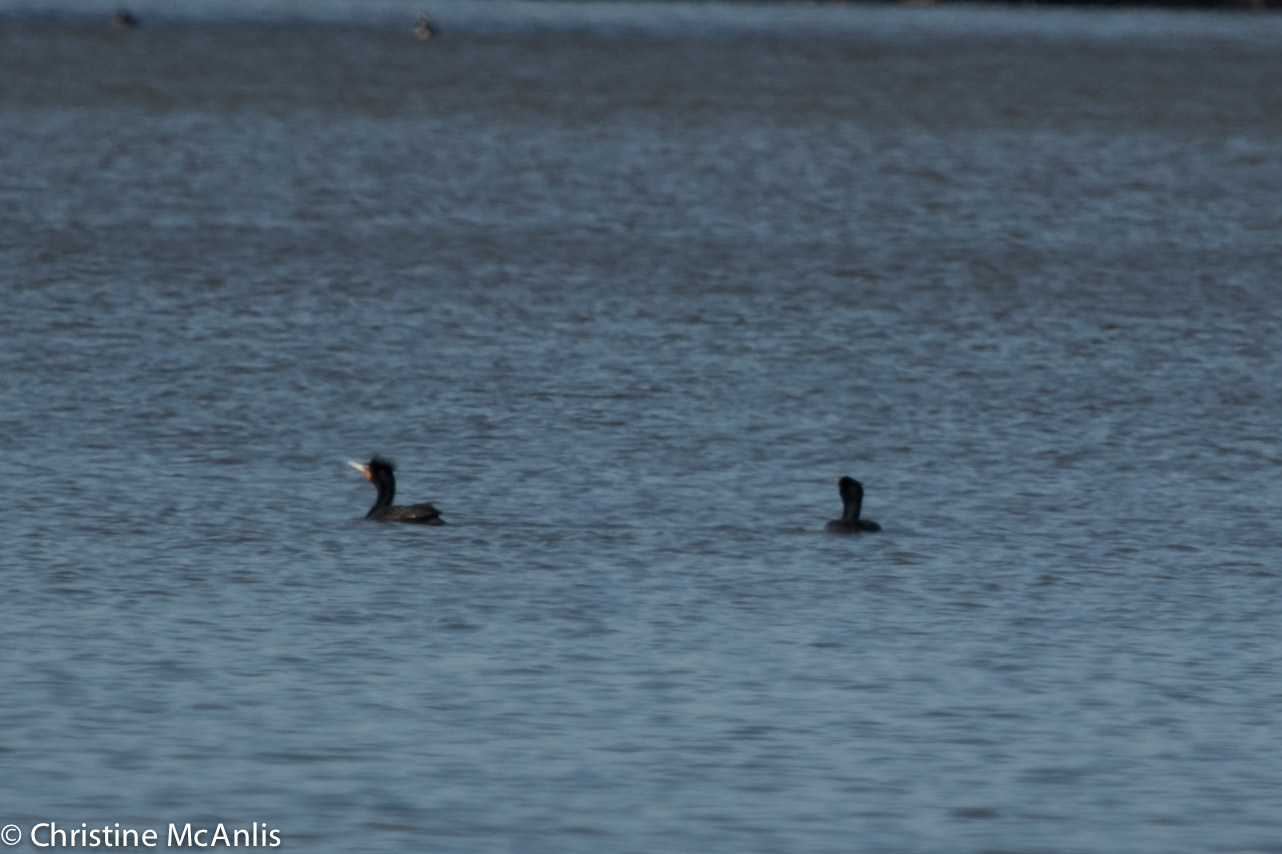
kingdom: Animalia
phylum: Chordata
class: Aves
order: Suliformes
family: Phalacrocoracidae
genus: Phalacrocorax
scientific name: Phalacrocorax auritus
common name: Double-crested cormorant
